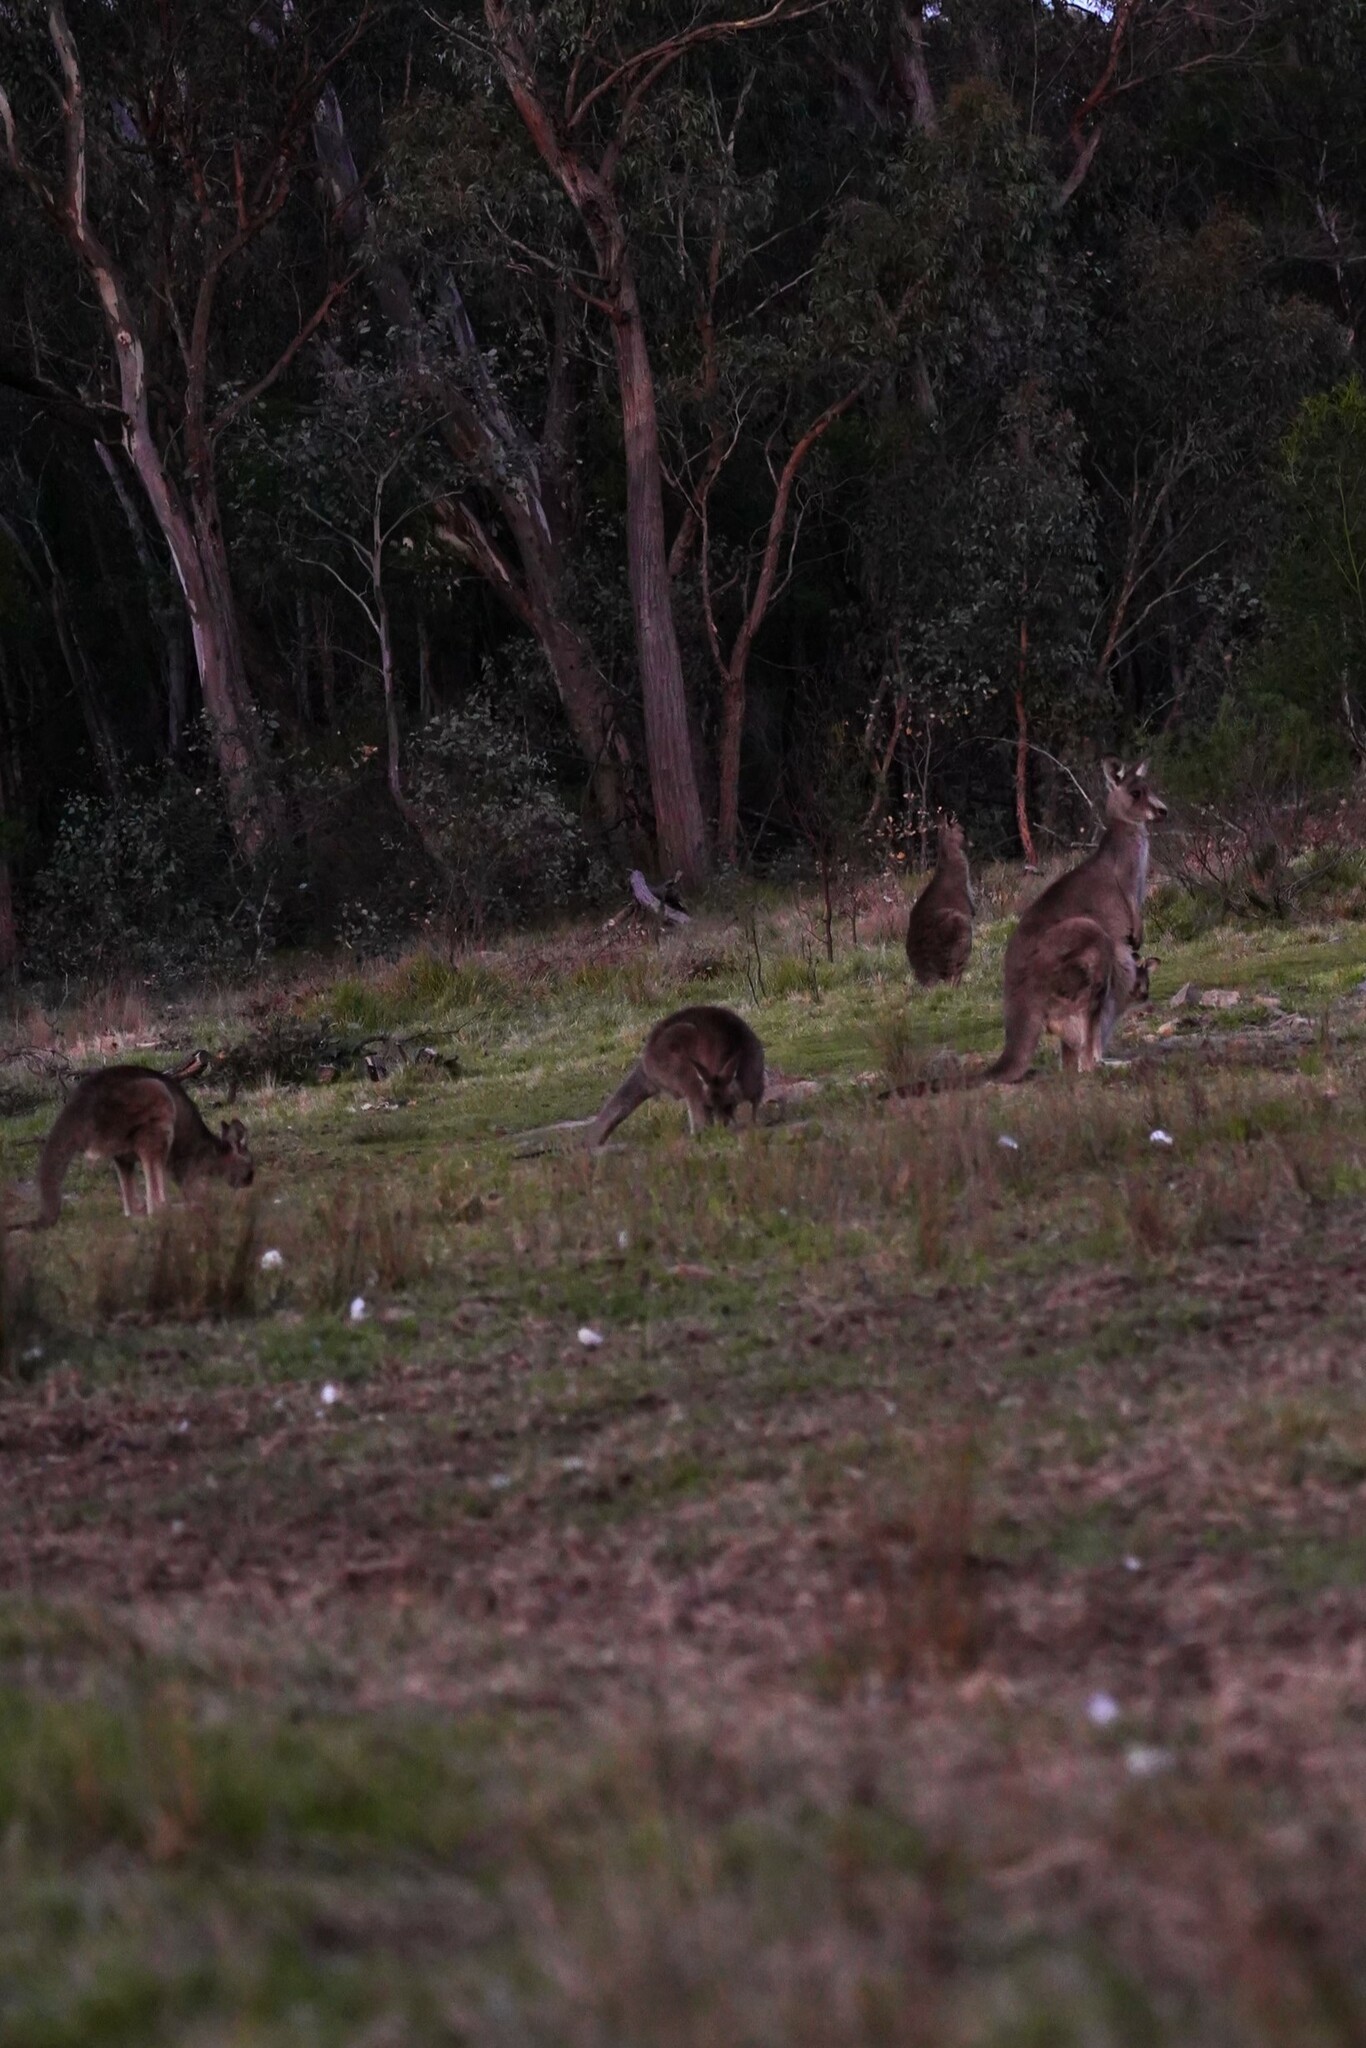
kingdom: Animalia
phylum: Chordata
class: Mammalia
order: Diprotodontia
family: Macropodidae
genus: Macropus
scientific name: Macropus giganteus
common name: Eastern grey kangaroo
